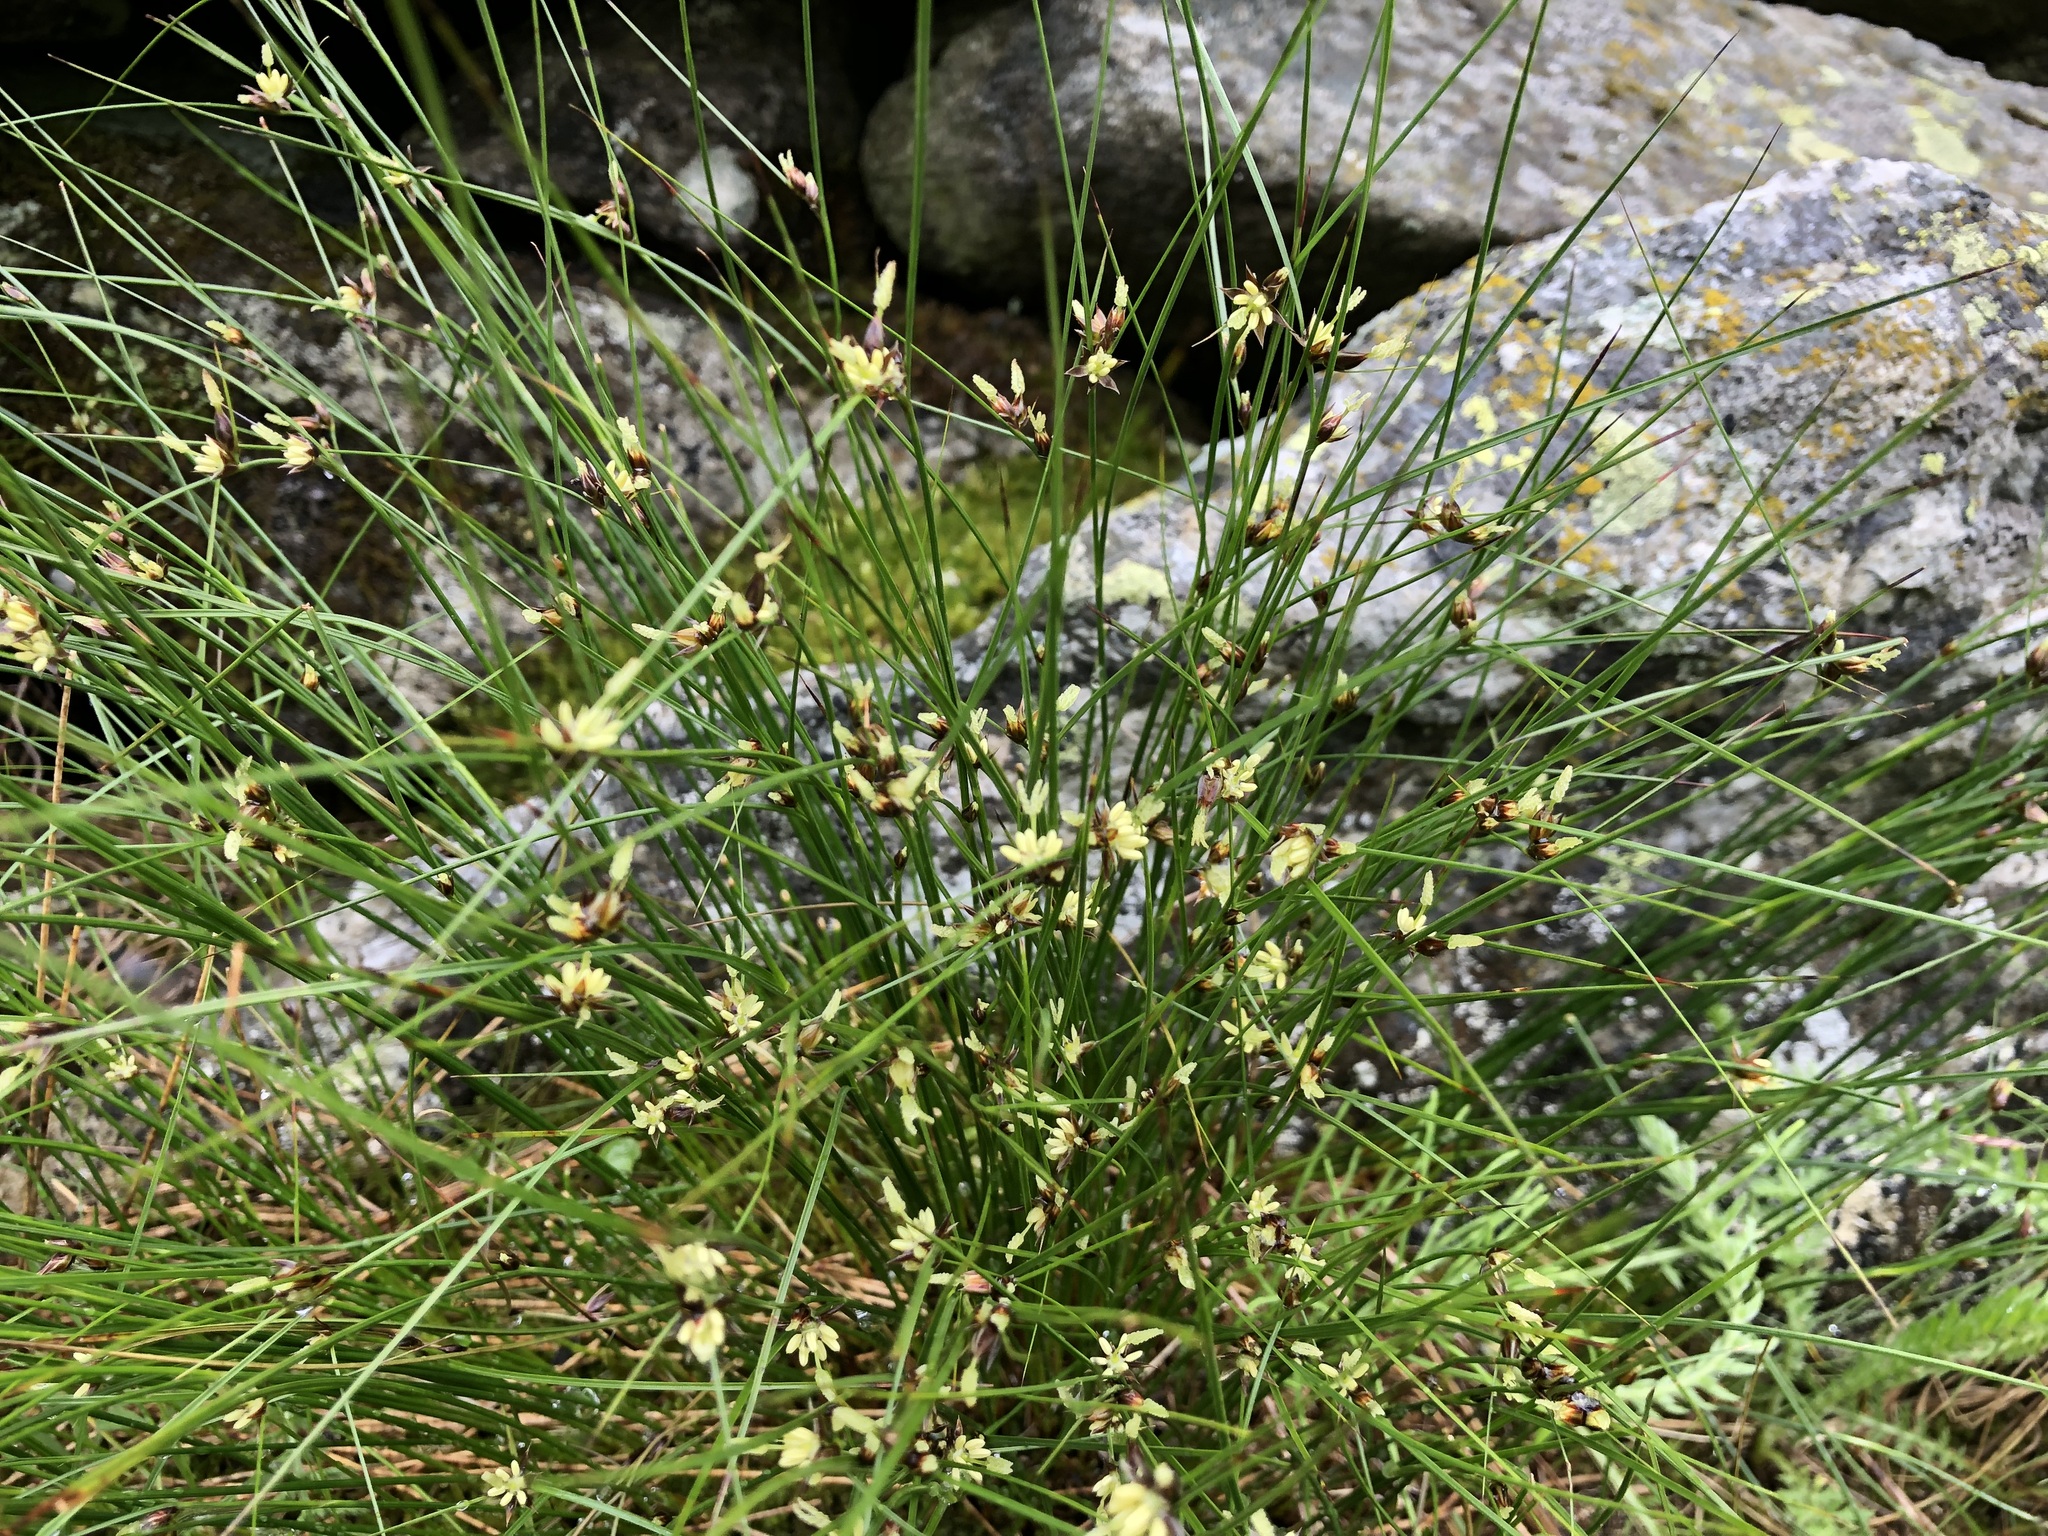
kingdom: Plantae
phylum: Tracheophyta
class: Liliopsida
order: Poales
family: Juncaceae
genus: Oreojuncus
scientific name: Oreojuncus trifidus
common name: Highland rush
